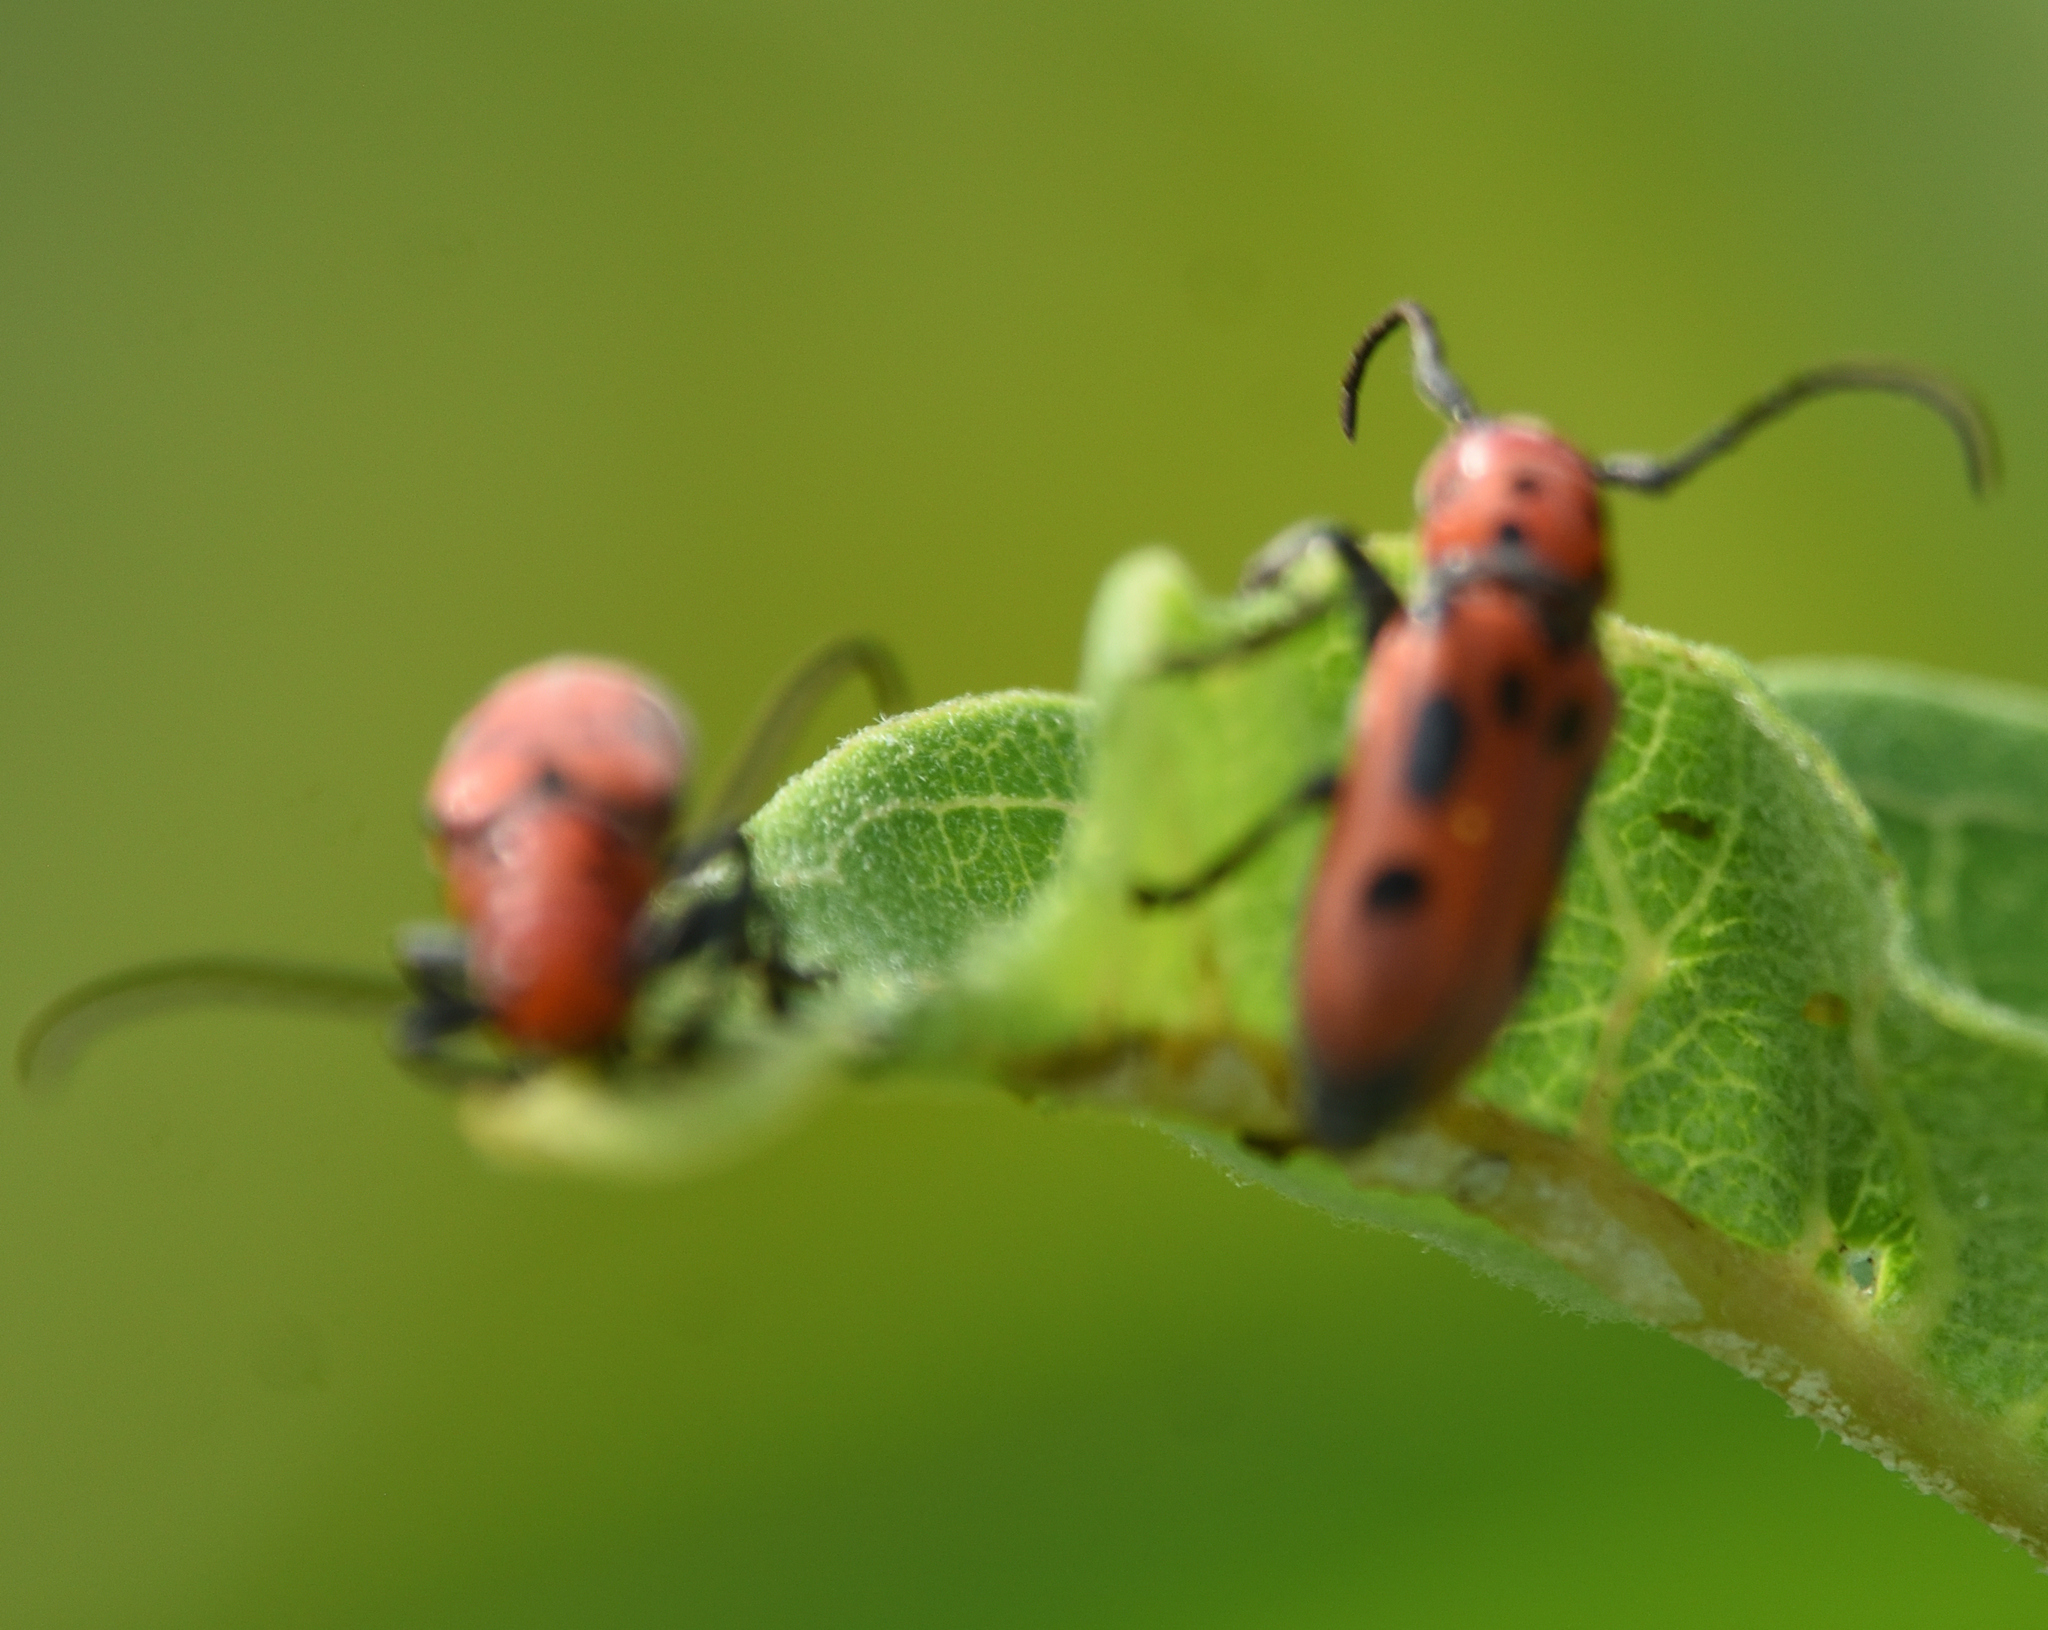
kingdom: Animalia
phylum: Arthropoda
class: Insecta
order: Coleoptera
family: Cerambycidae
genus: Tetraopes
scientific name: Tetraopes tetrophthalmus
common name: Red milkweed beetle
